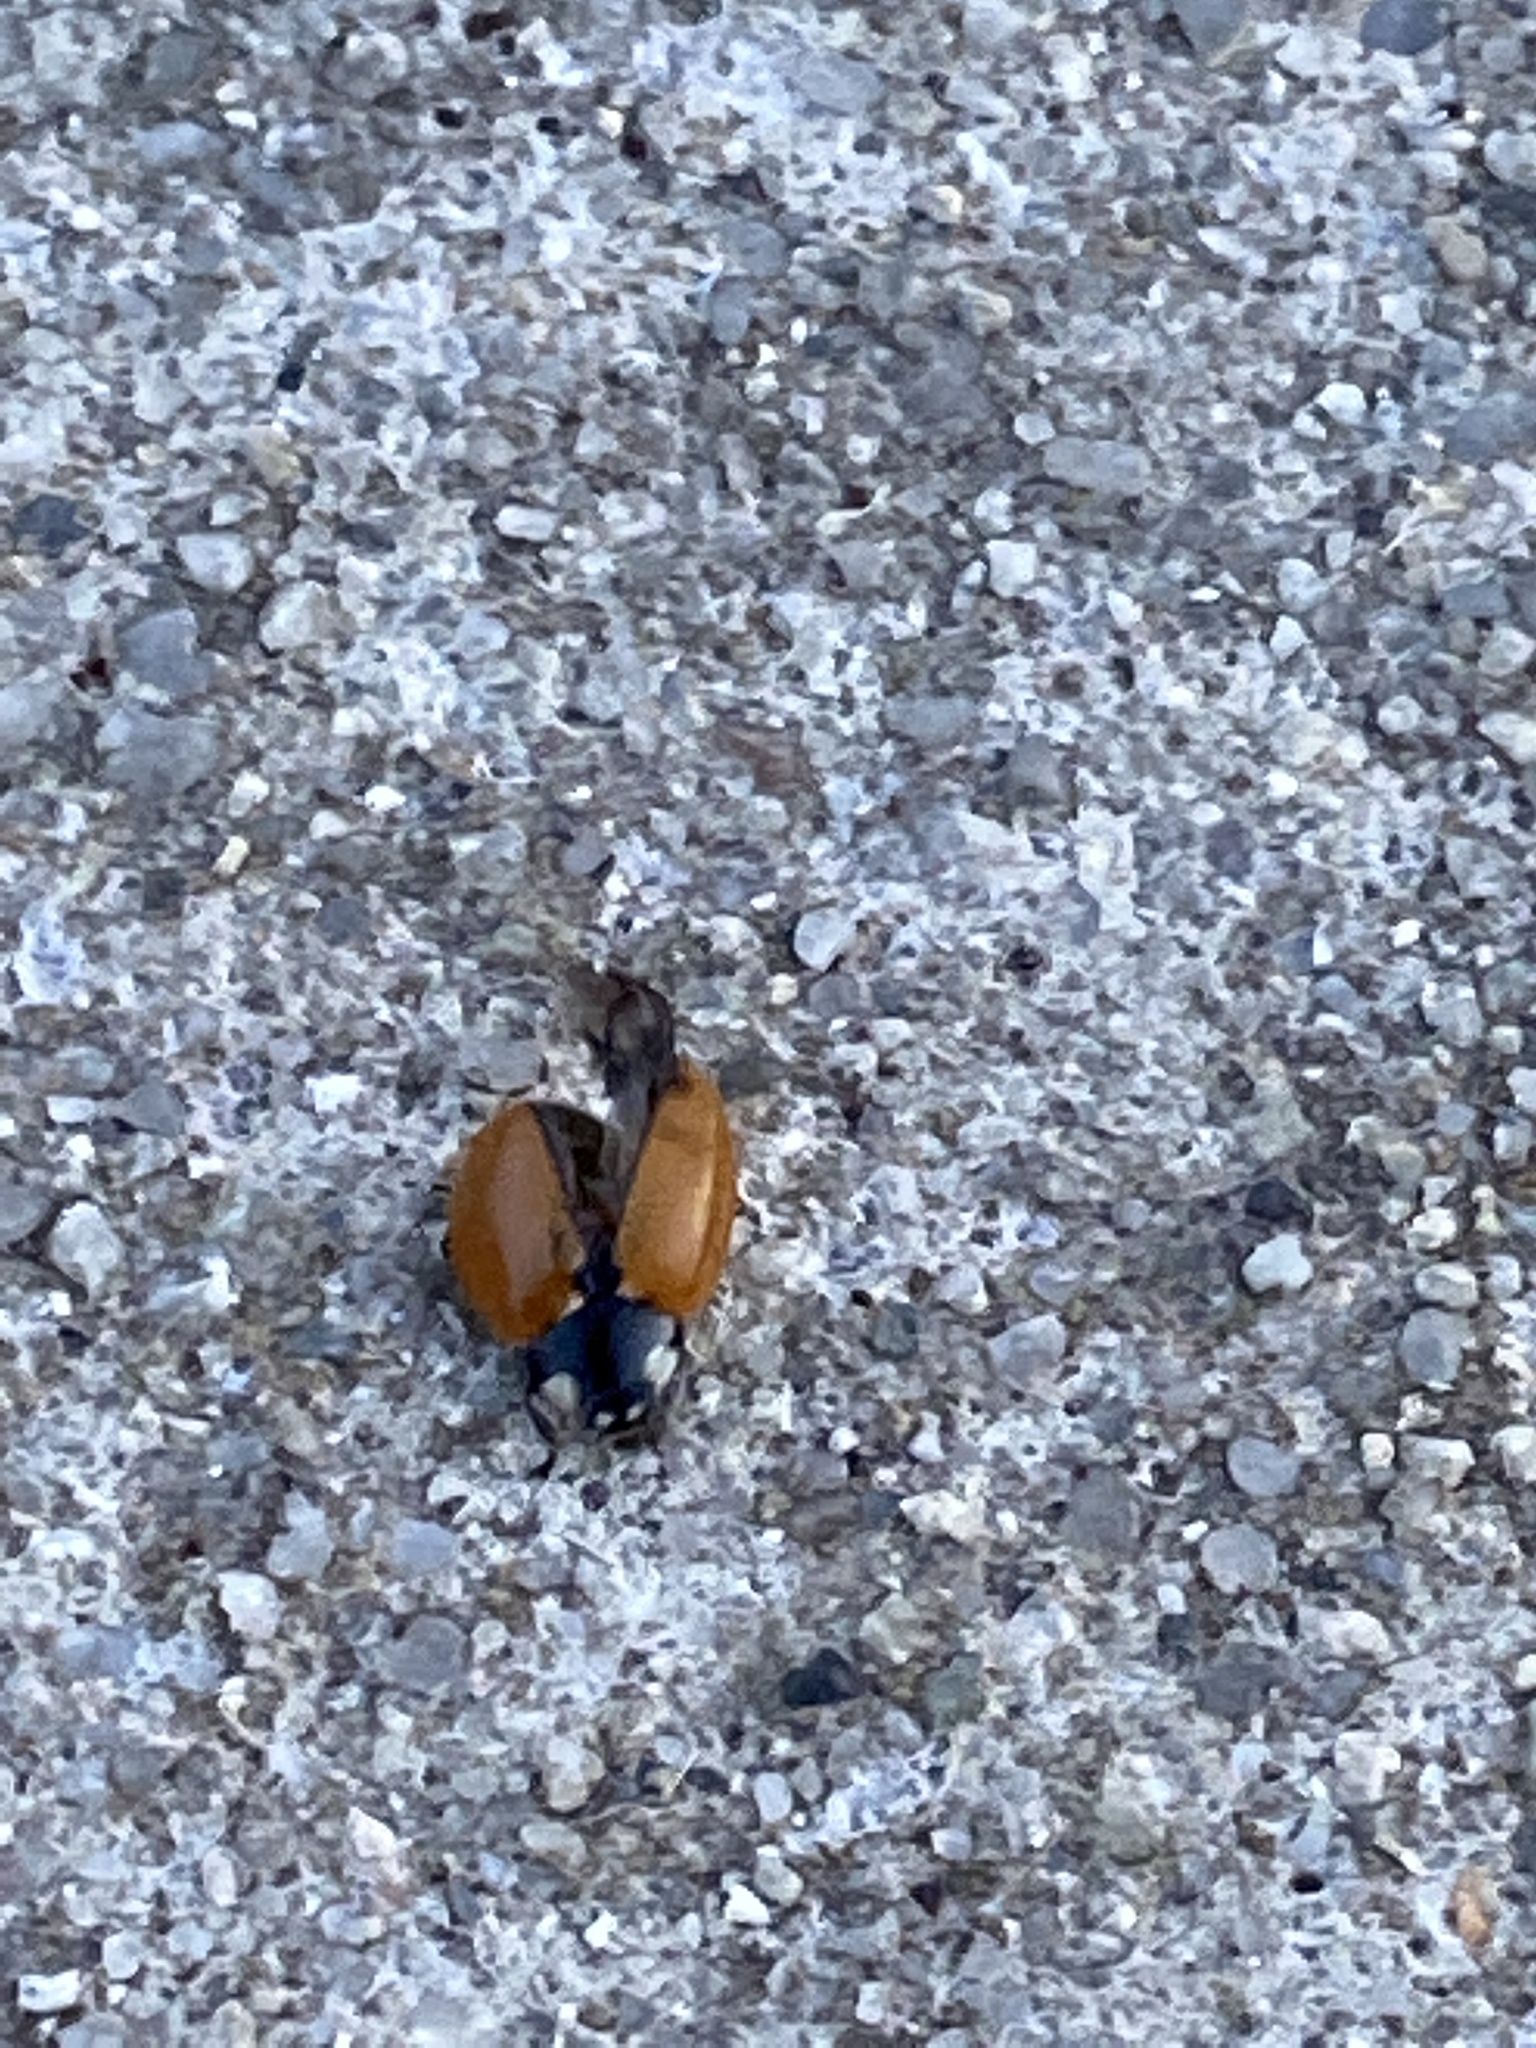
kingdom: Animalia
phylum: Arthropoda
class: Insecta
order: Coleoptera
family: Coccinellidae
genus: Coccinella
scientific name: Coccinella californica
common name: Lady beetle
